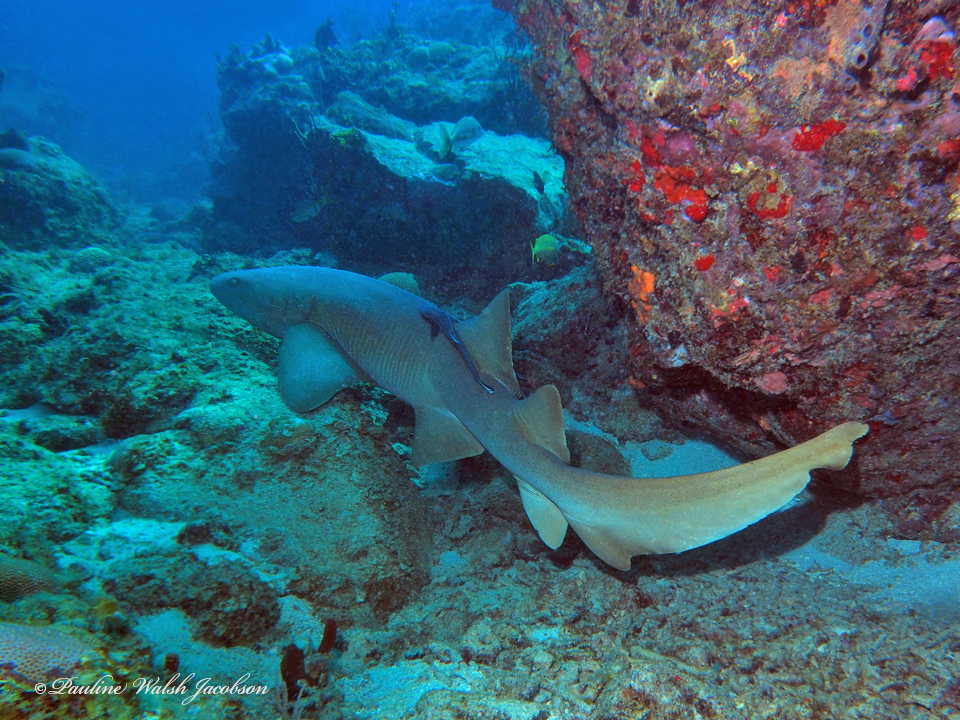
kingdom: Animalia
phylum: Chordata
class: Elasmobranchii
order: Orectolobiformes
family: Ginglymostomatidae
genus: Ginglymostoma
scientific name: Ginglymostoma cirratum
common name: Nurse shark
